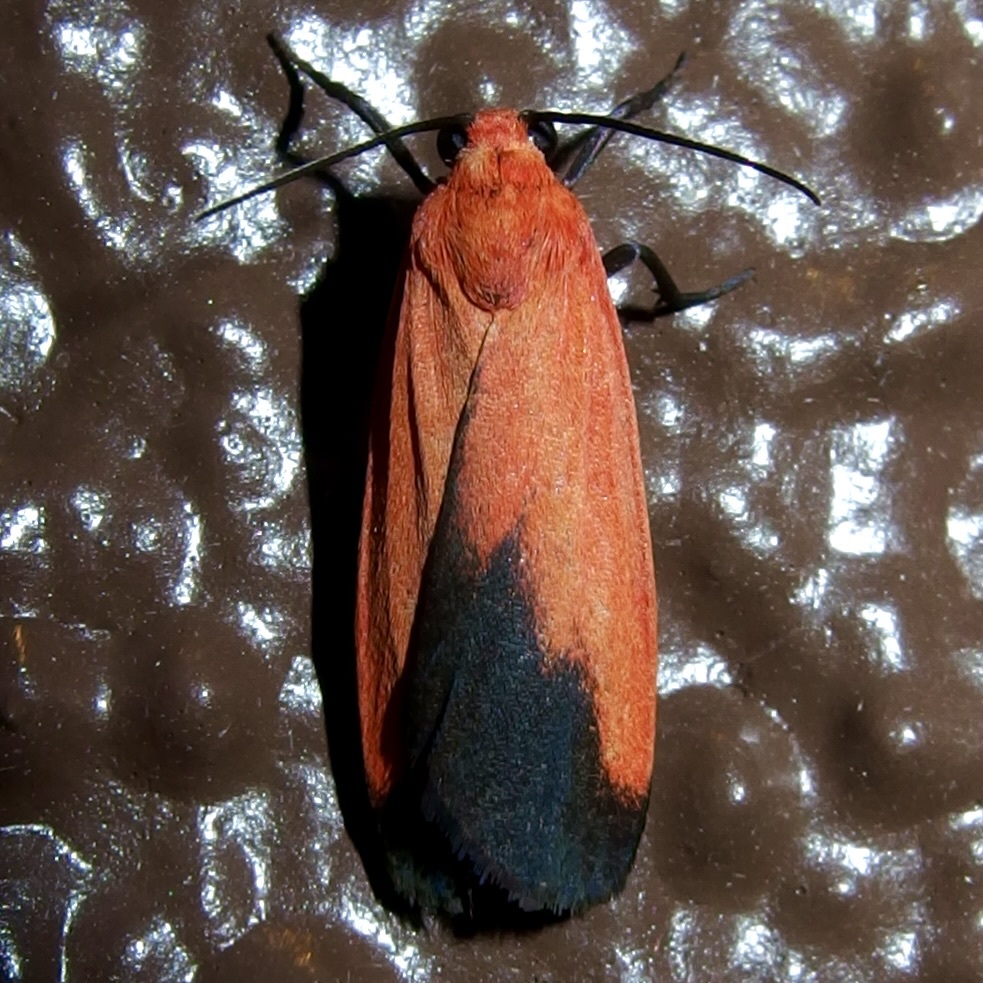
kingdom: Animalia
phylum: Arthropoda
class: Insecta
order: Lepidoptera
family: Erebidae
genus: Ptychoglene
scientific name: Ptychoglene coccinea
